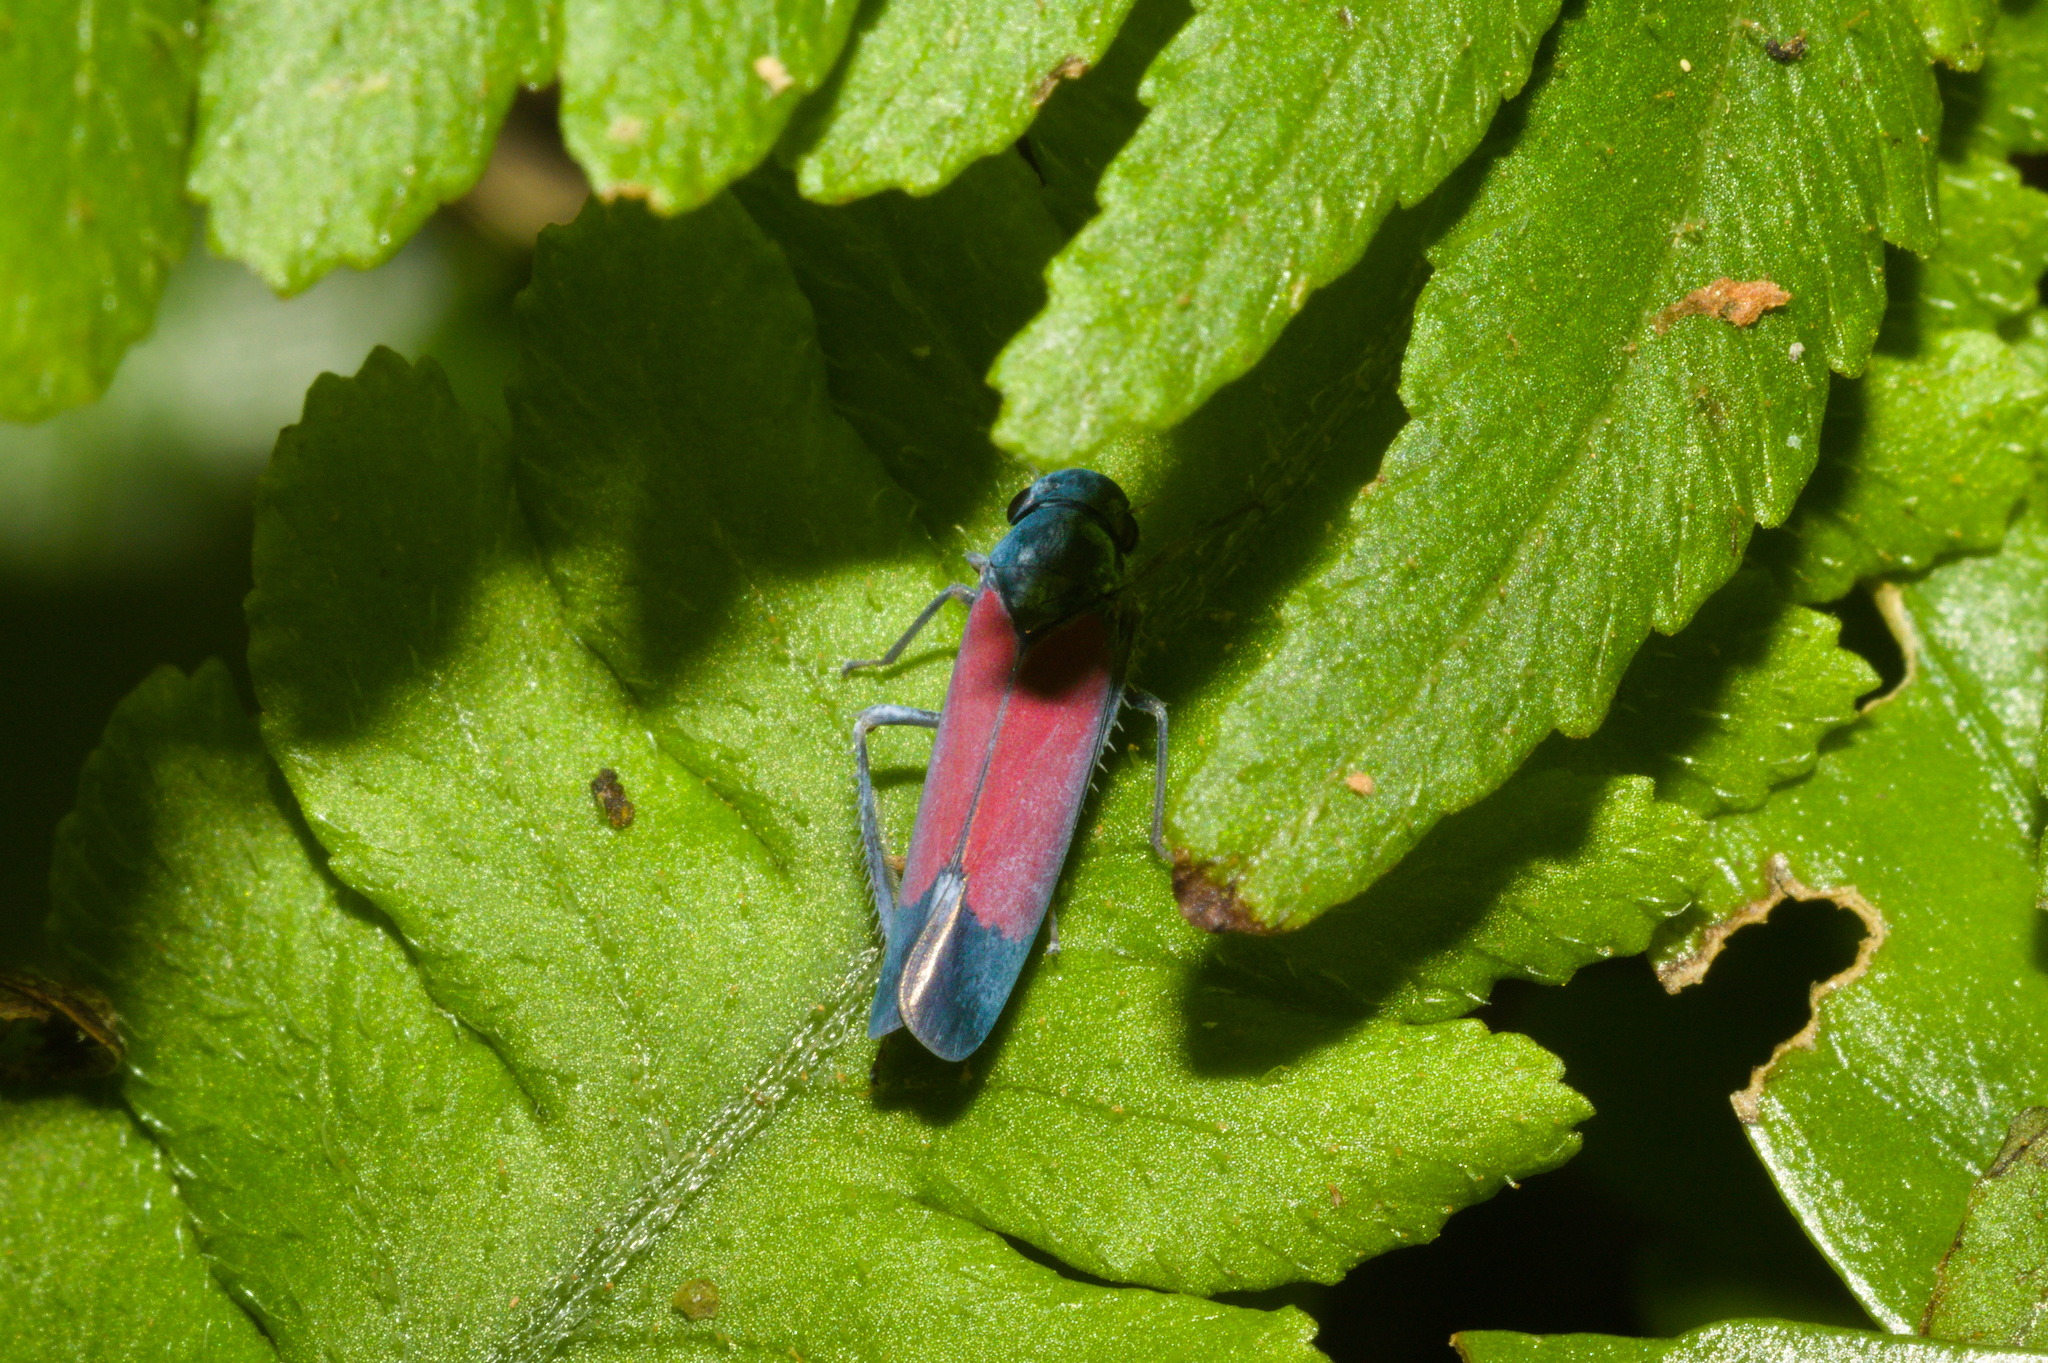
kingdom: Animalia
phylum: Arthropoda
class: Insecta
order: Hemiptera
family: Cicadellidae
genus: Cardioscarta
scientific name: Cardioscarta flavifrons
